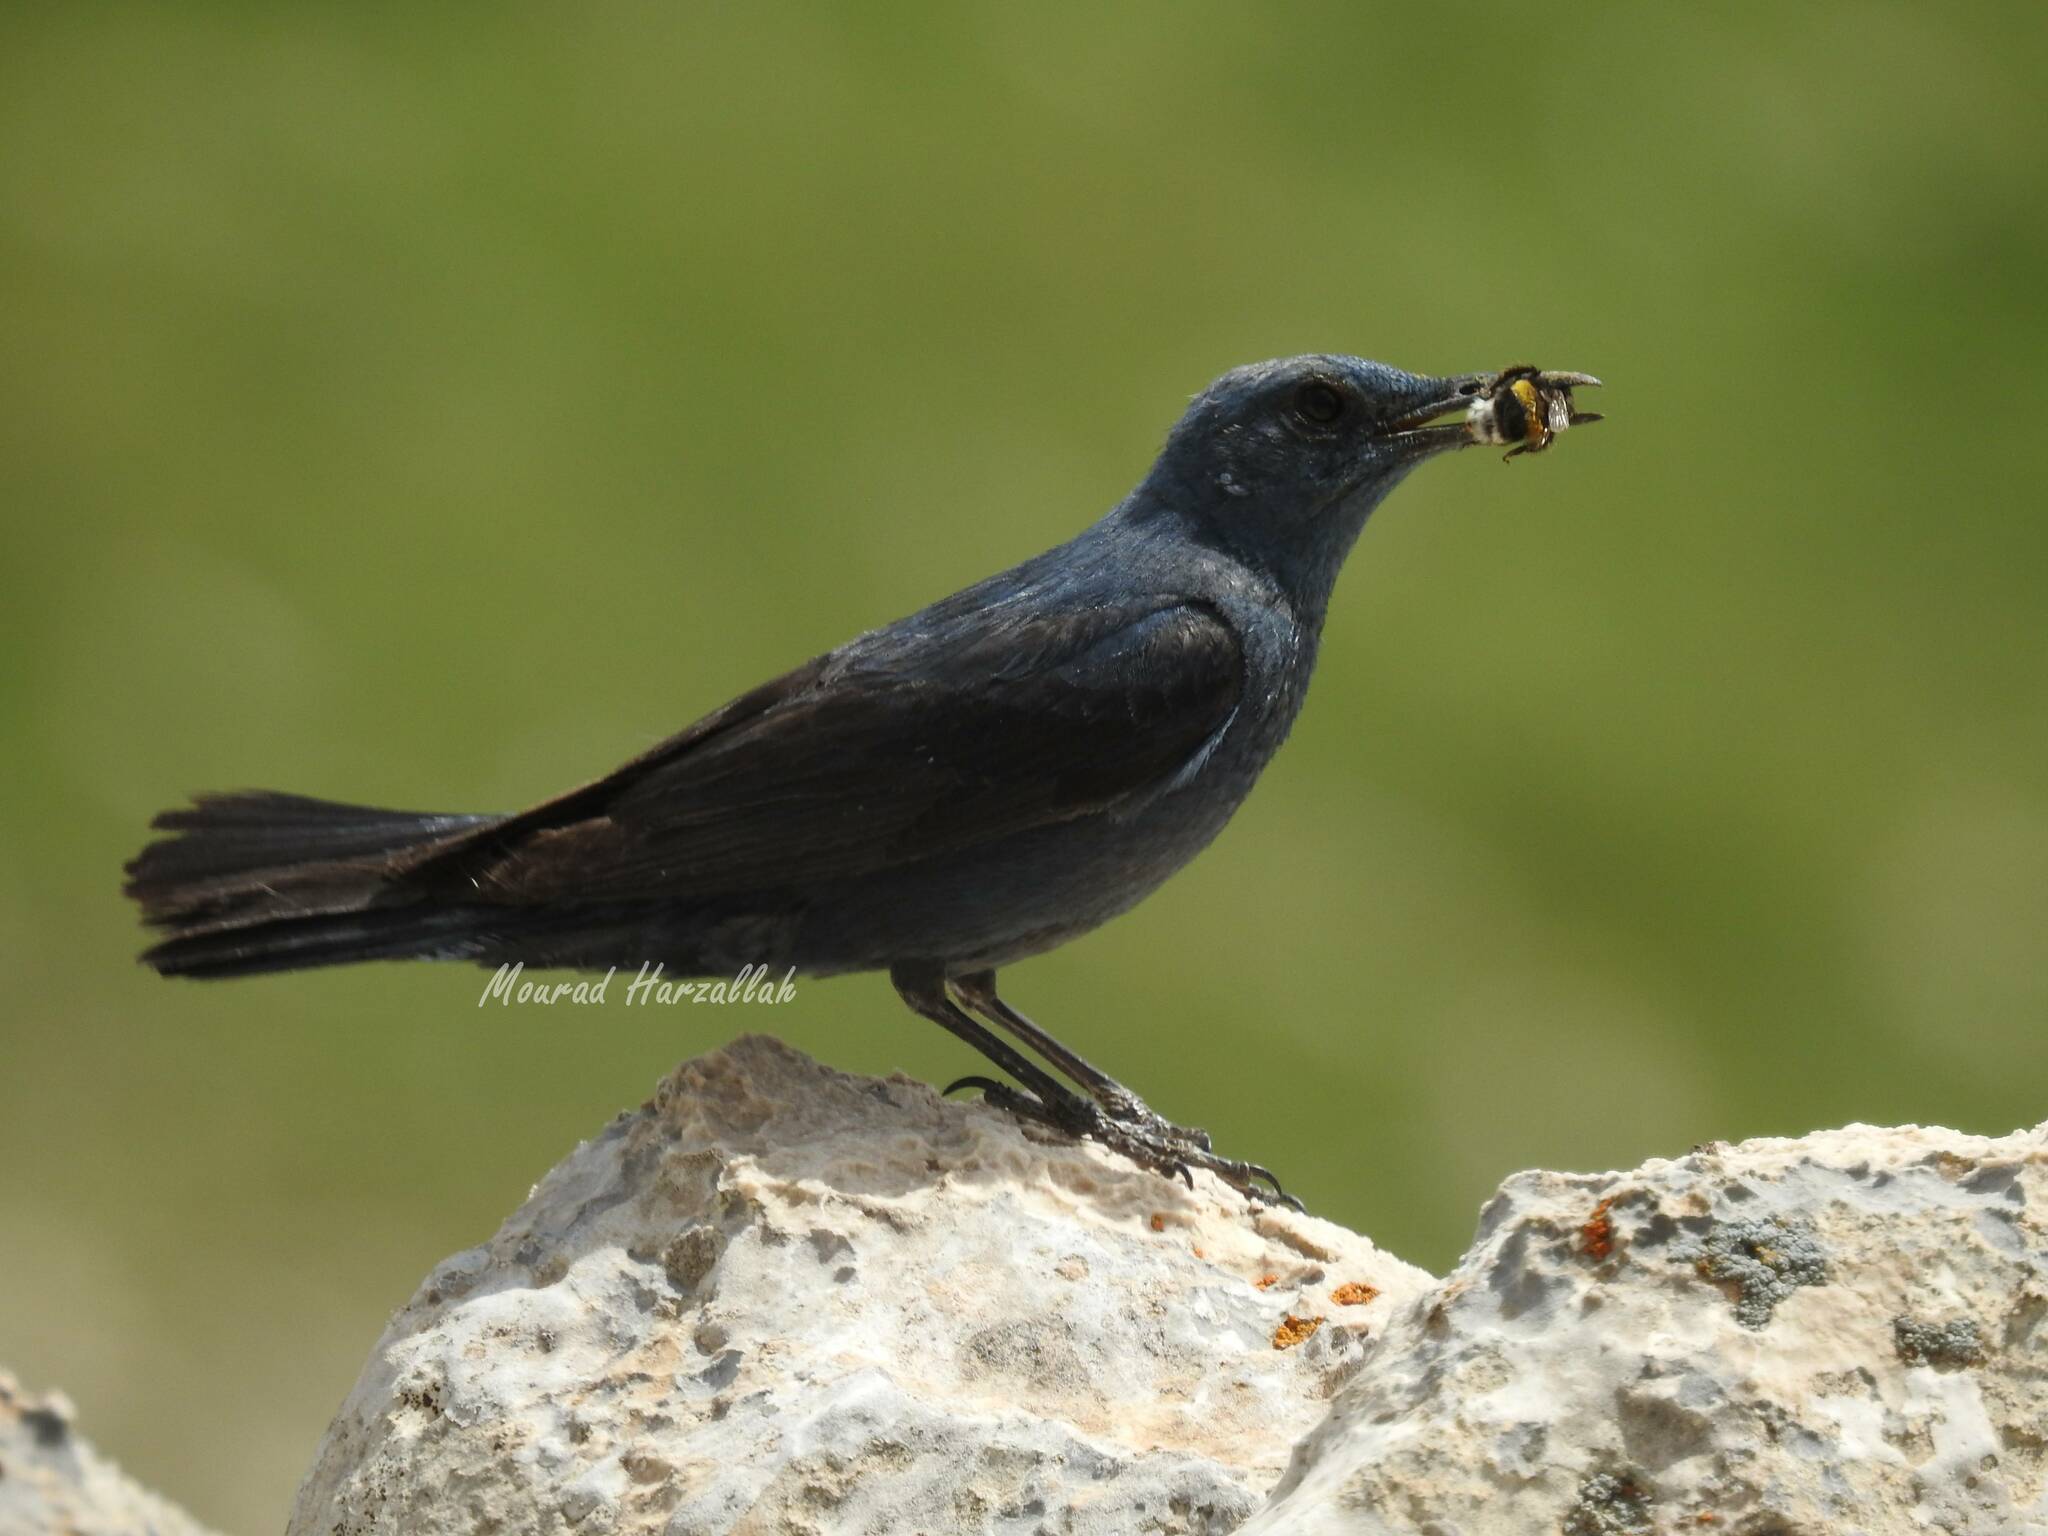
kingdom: Animalia
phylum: Chordata
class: Aves
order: Passeriformes
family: Muscicapidae
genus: Monticola
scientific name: Monticola solitarius
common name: Blue rock thrush
